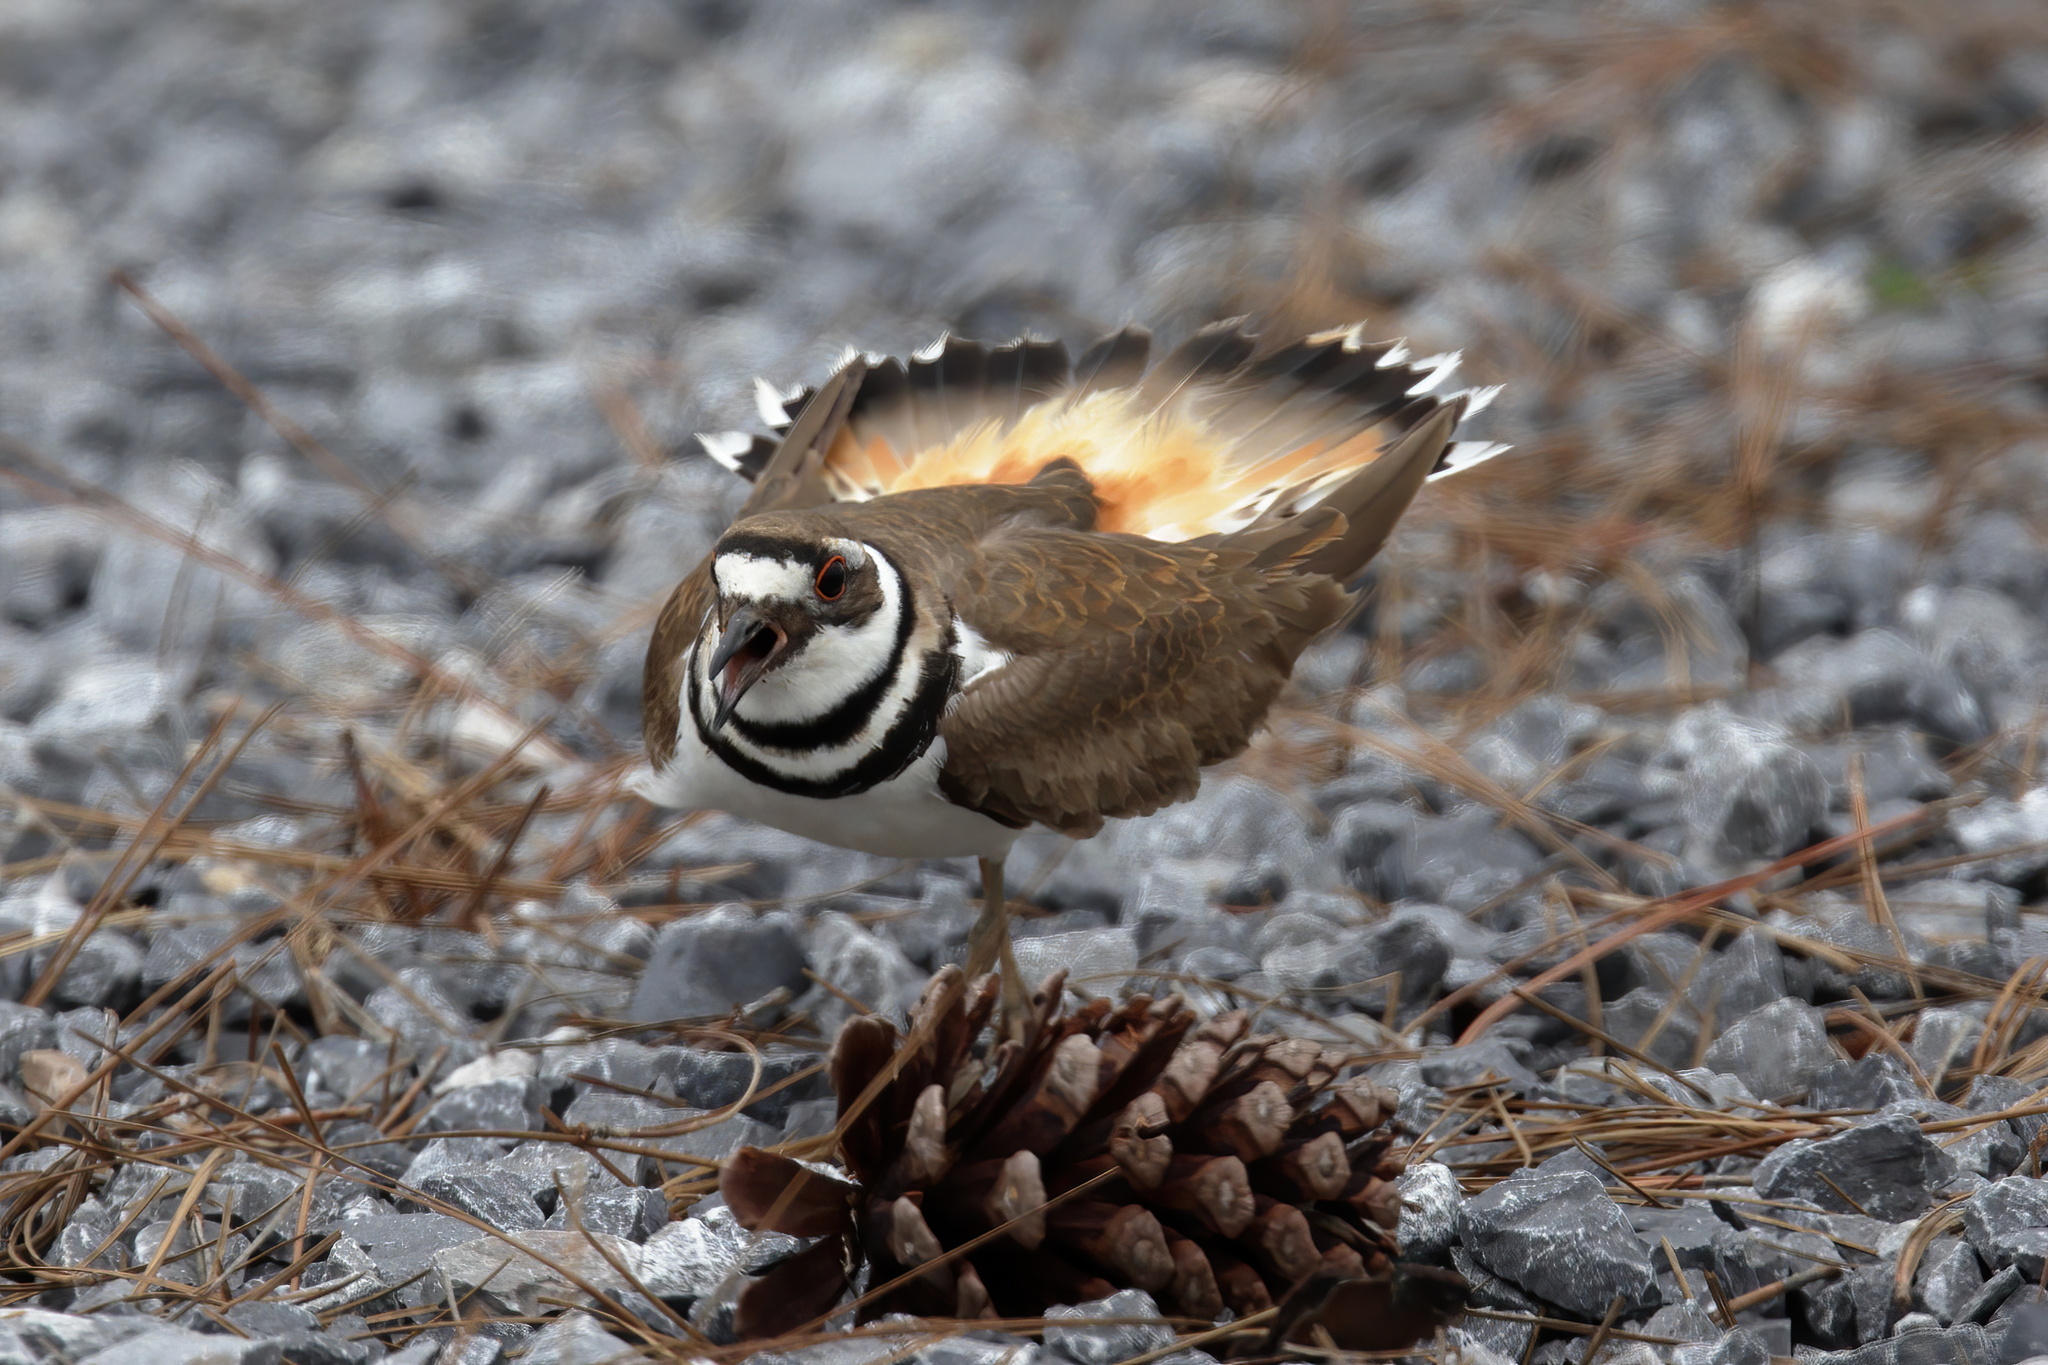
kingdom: Animalia
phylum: Chordata
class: Aves
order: Charadriiformes
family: Charadriidae
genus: Charadrius
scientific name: Charadrius vociferus
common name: Killdeer
